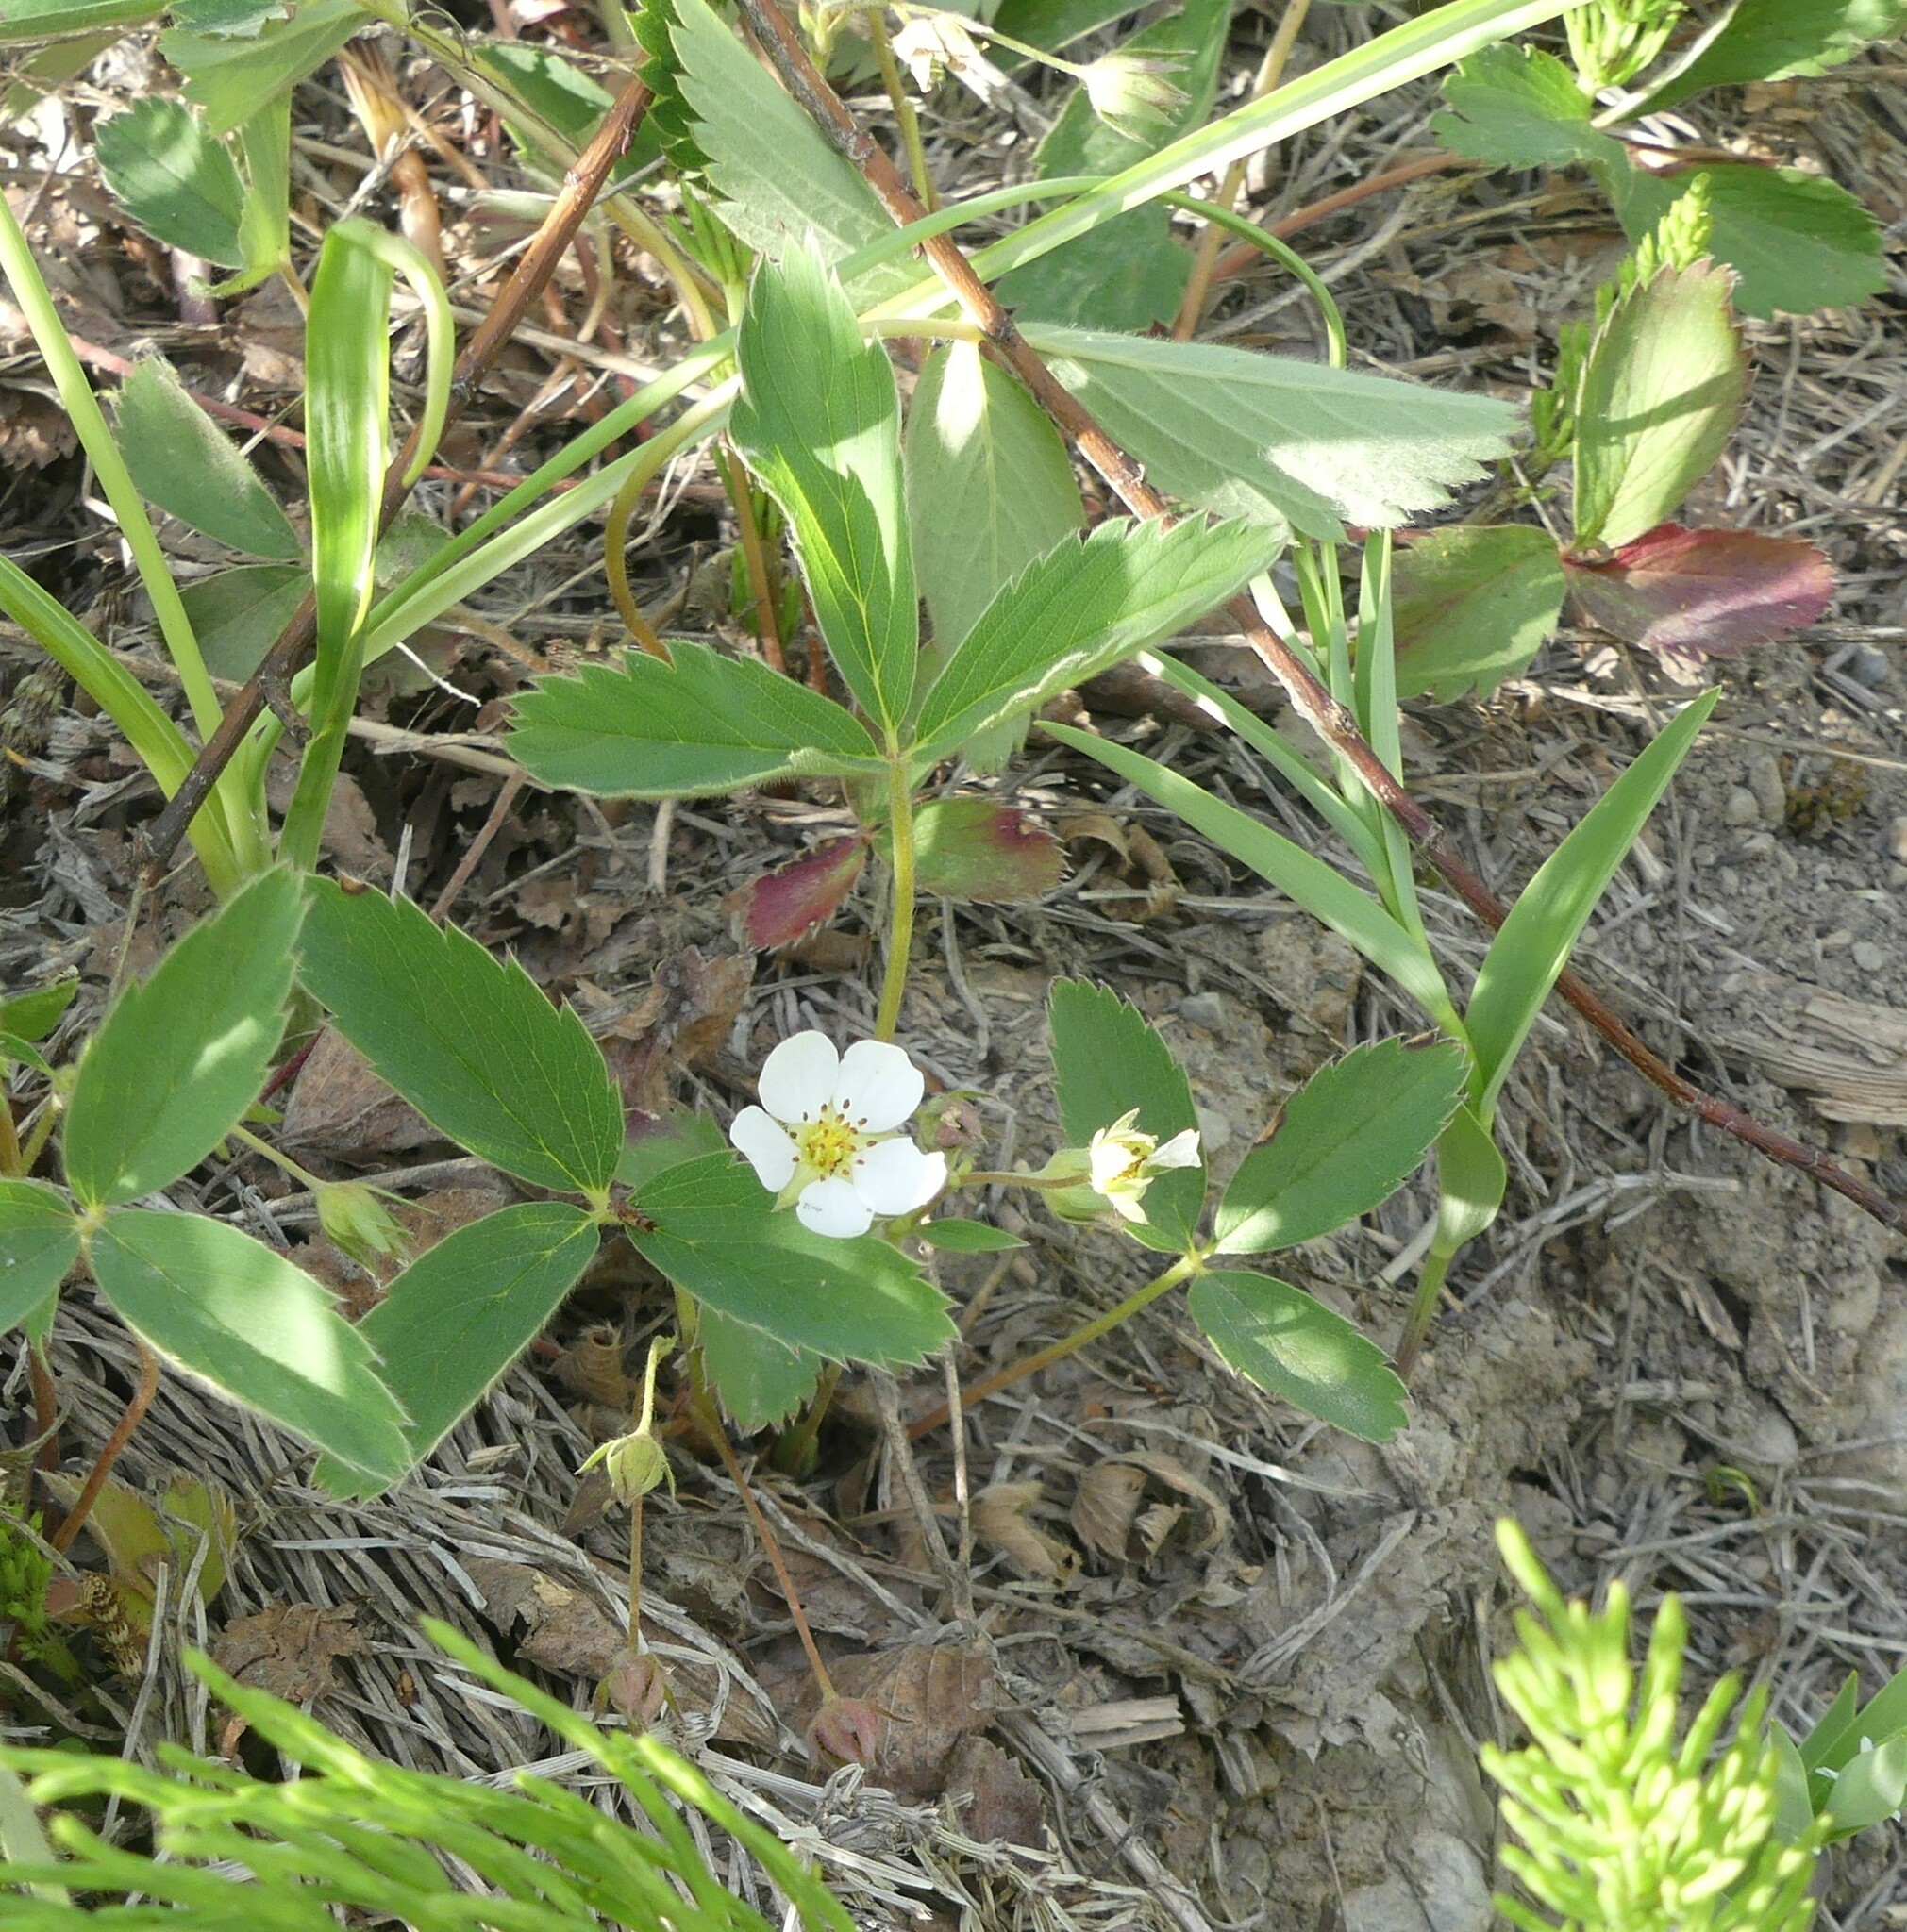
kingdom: Plantae
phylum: Tracheophyta
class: Magnoliopsida
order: Rosales
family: Rosaceae
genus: Fragaria
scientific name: Fragaria virginiana
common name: Thickleaved wild strawberry
